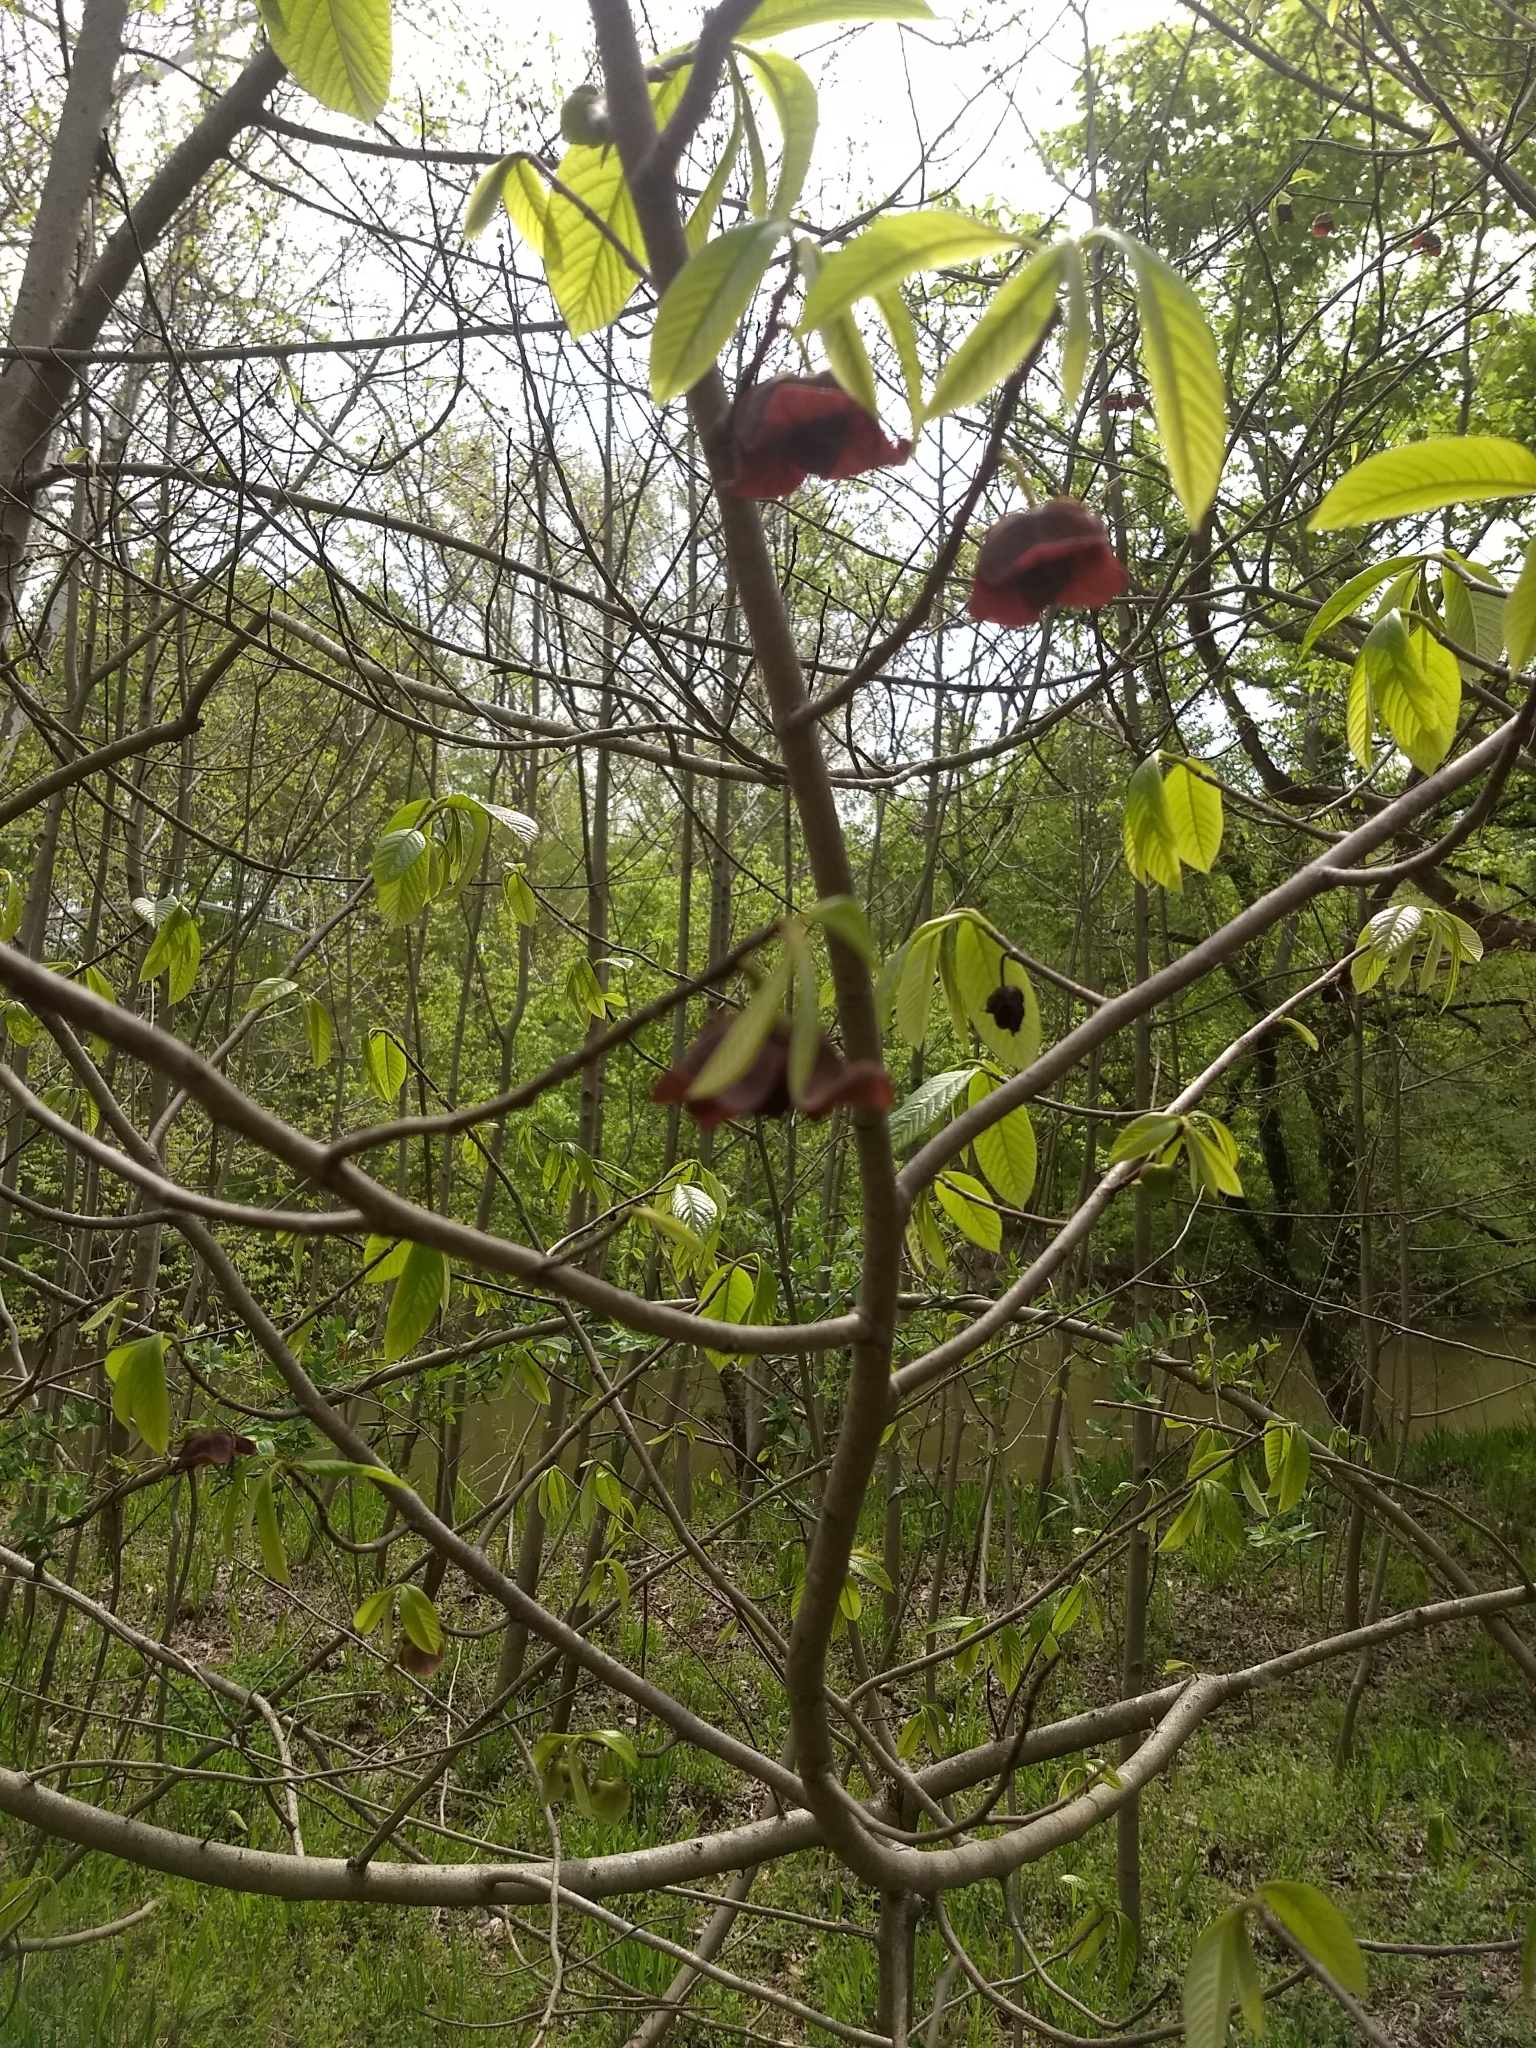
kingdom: Plantae
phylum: Tracheophyta
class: Magnoliopsida
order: Magnoliales
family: Annonaceae
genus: Asimina
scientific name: Asimina triloba
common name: Dog-banana
